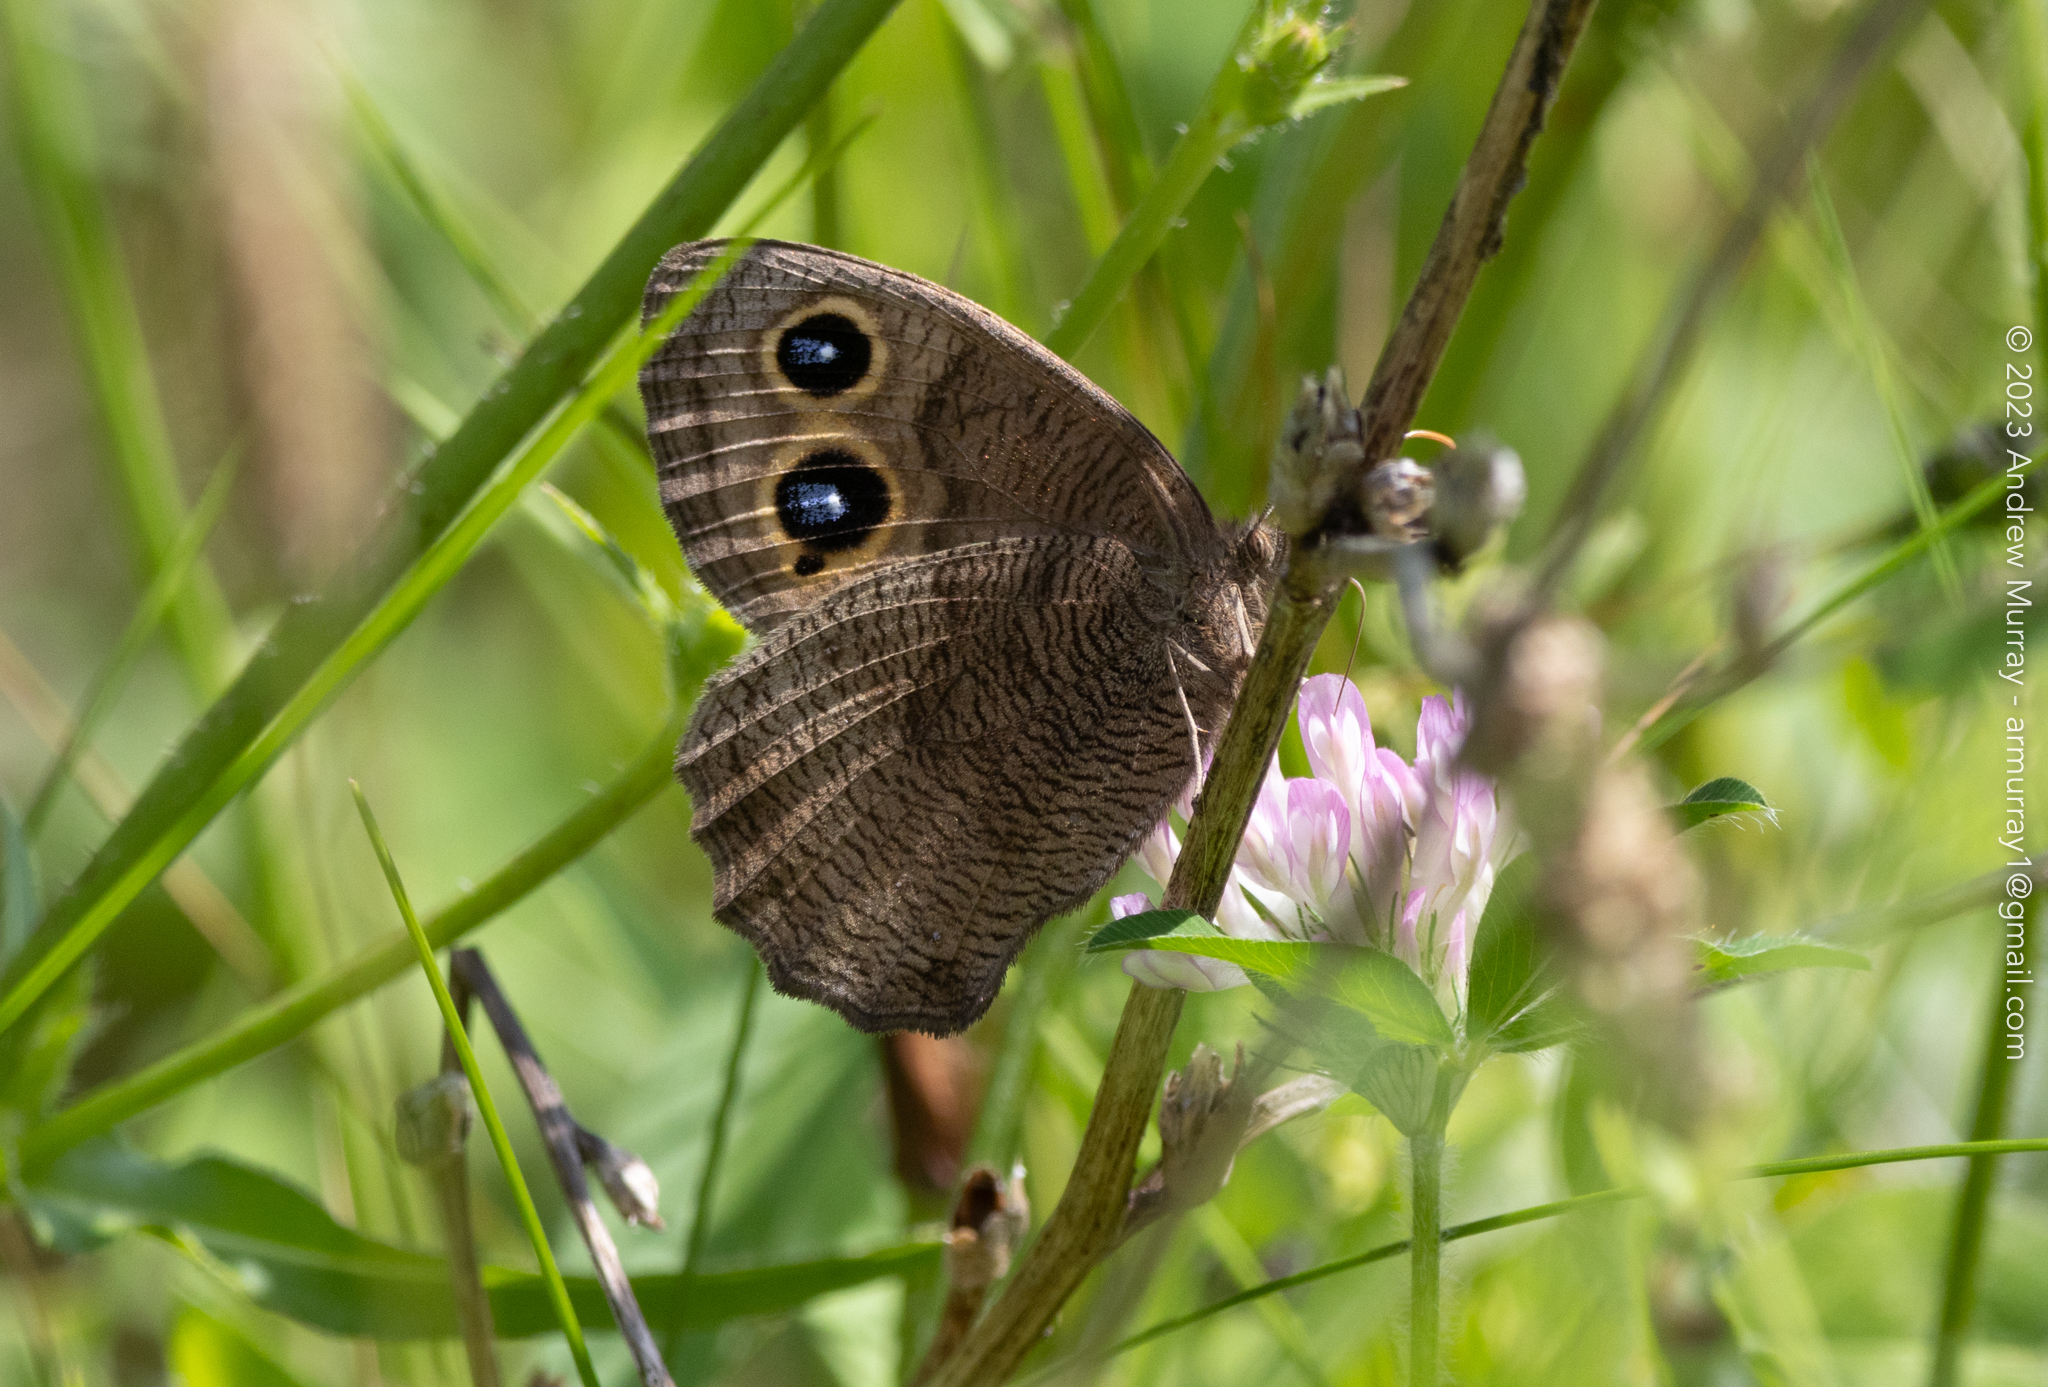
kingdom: Animalia
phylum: Arthropoda
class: Insecta
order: Lepidoptera
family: Nymphalidae
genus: Cercyonis
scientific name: Cercyonis pegala
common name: Common wood-nymph
